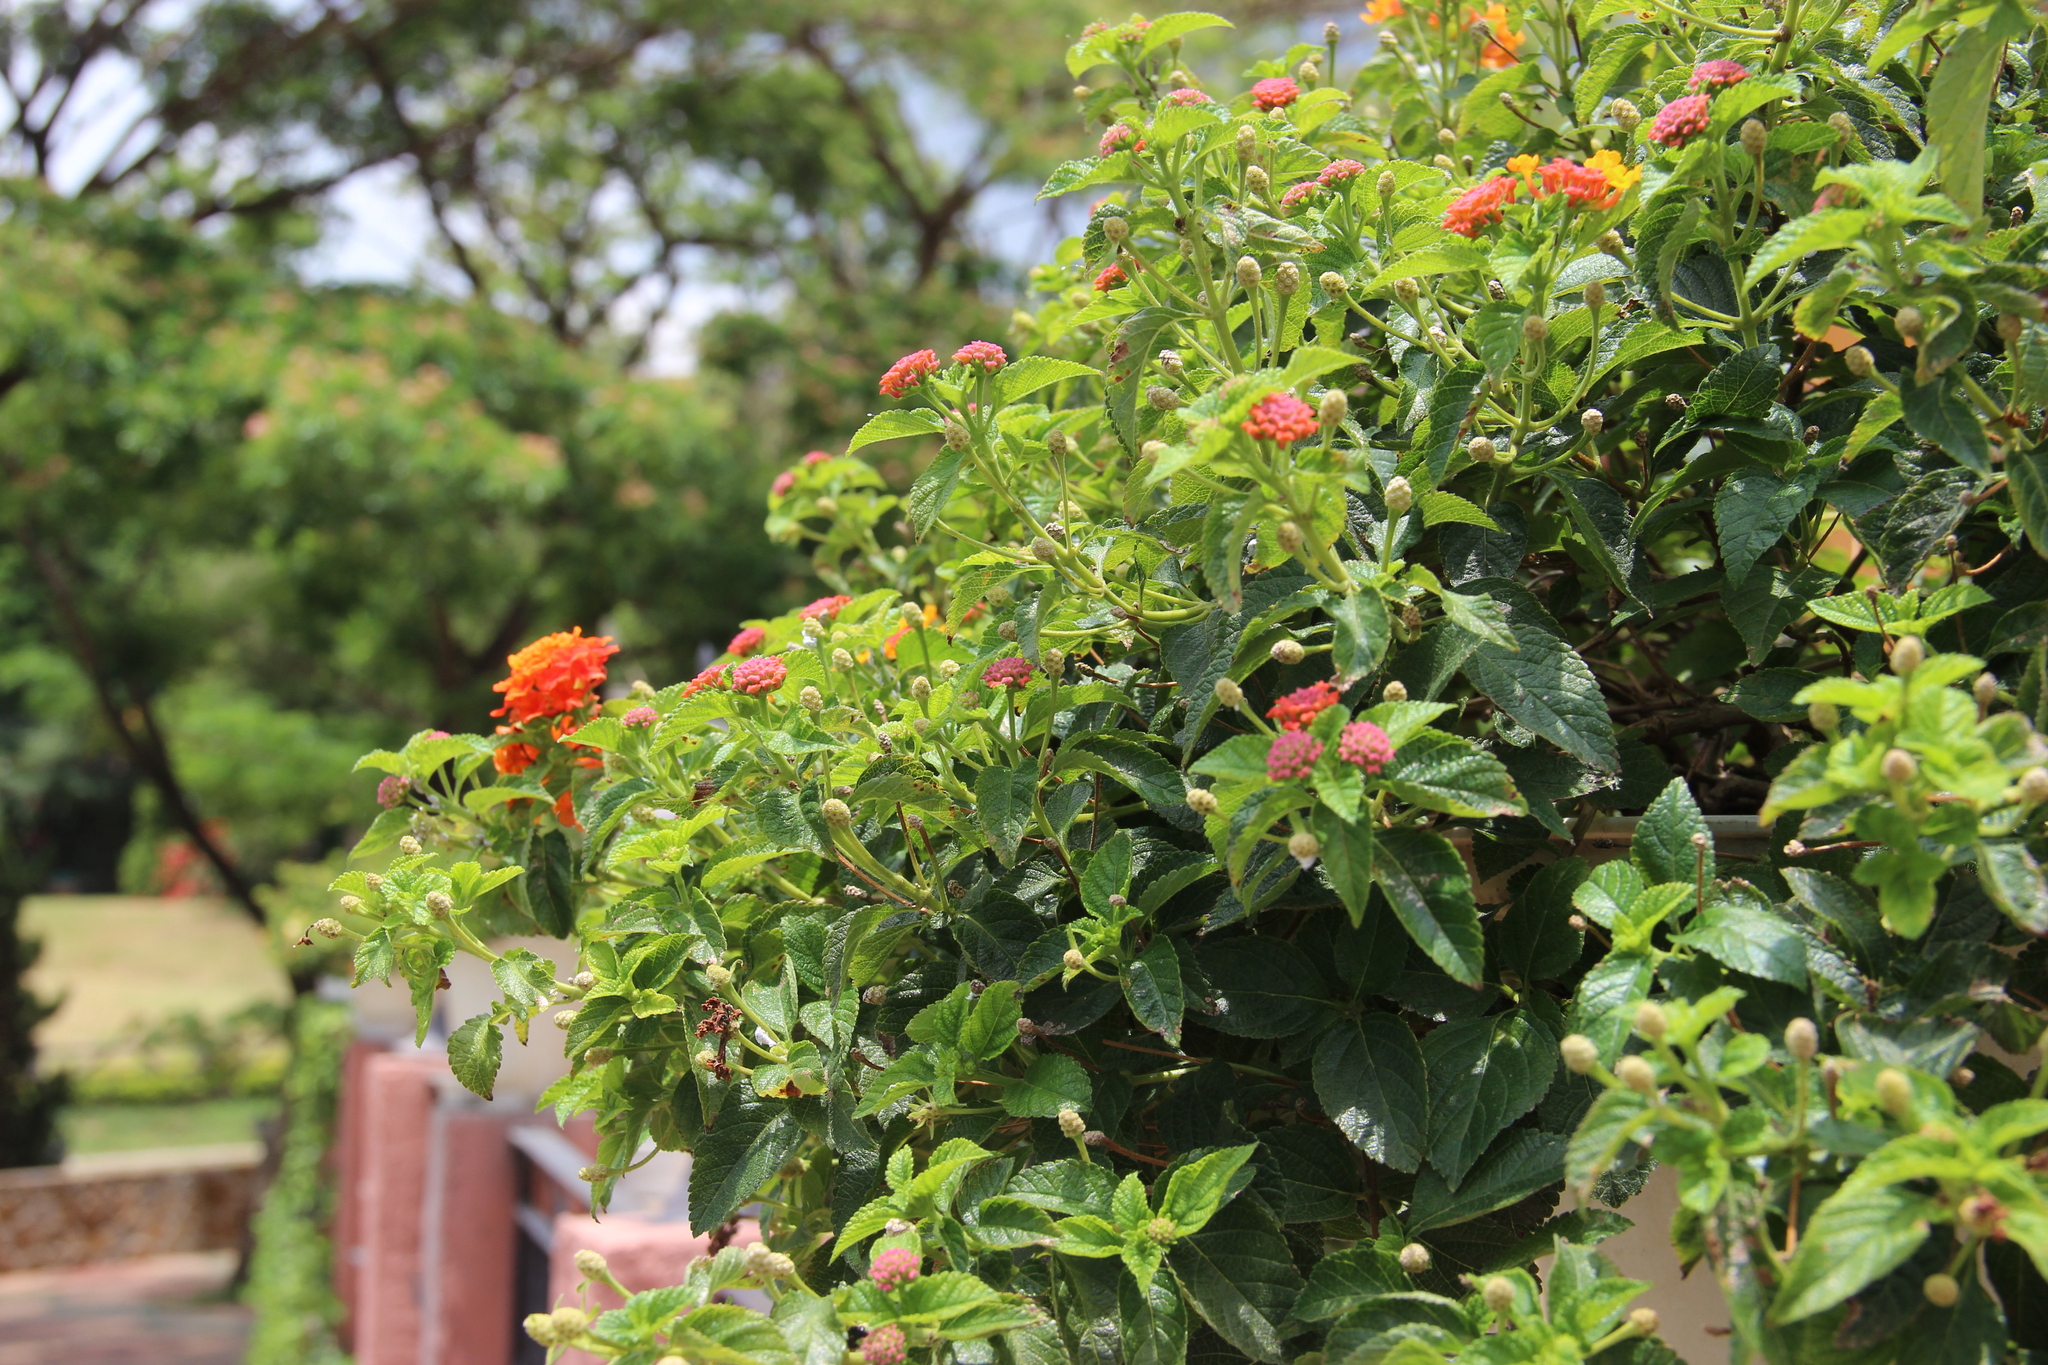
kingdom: Plantae
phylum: Tracheophyta
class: Magnoliopsida
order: Lamiales
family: Verbenaceae
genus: Lantana
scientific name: Lantana camara
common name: Lantana
